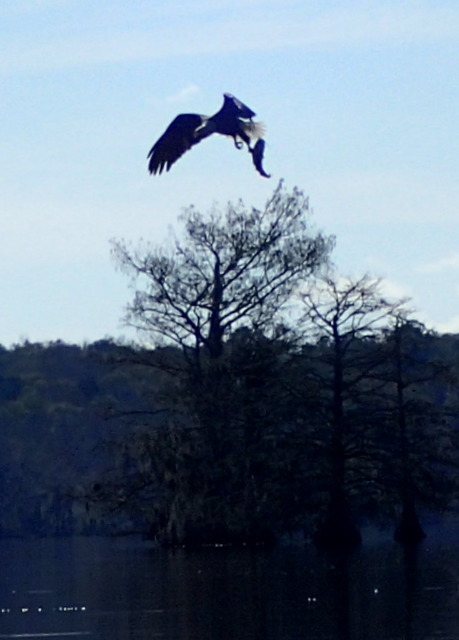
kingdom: Animalia
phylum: Chordata
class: Aves
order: Accipitriformes
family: Accipitridae
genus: Haliaeetus
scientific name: Haliaeetus leucocephalus
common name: Bald eagle
